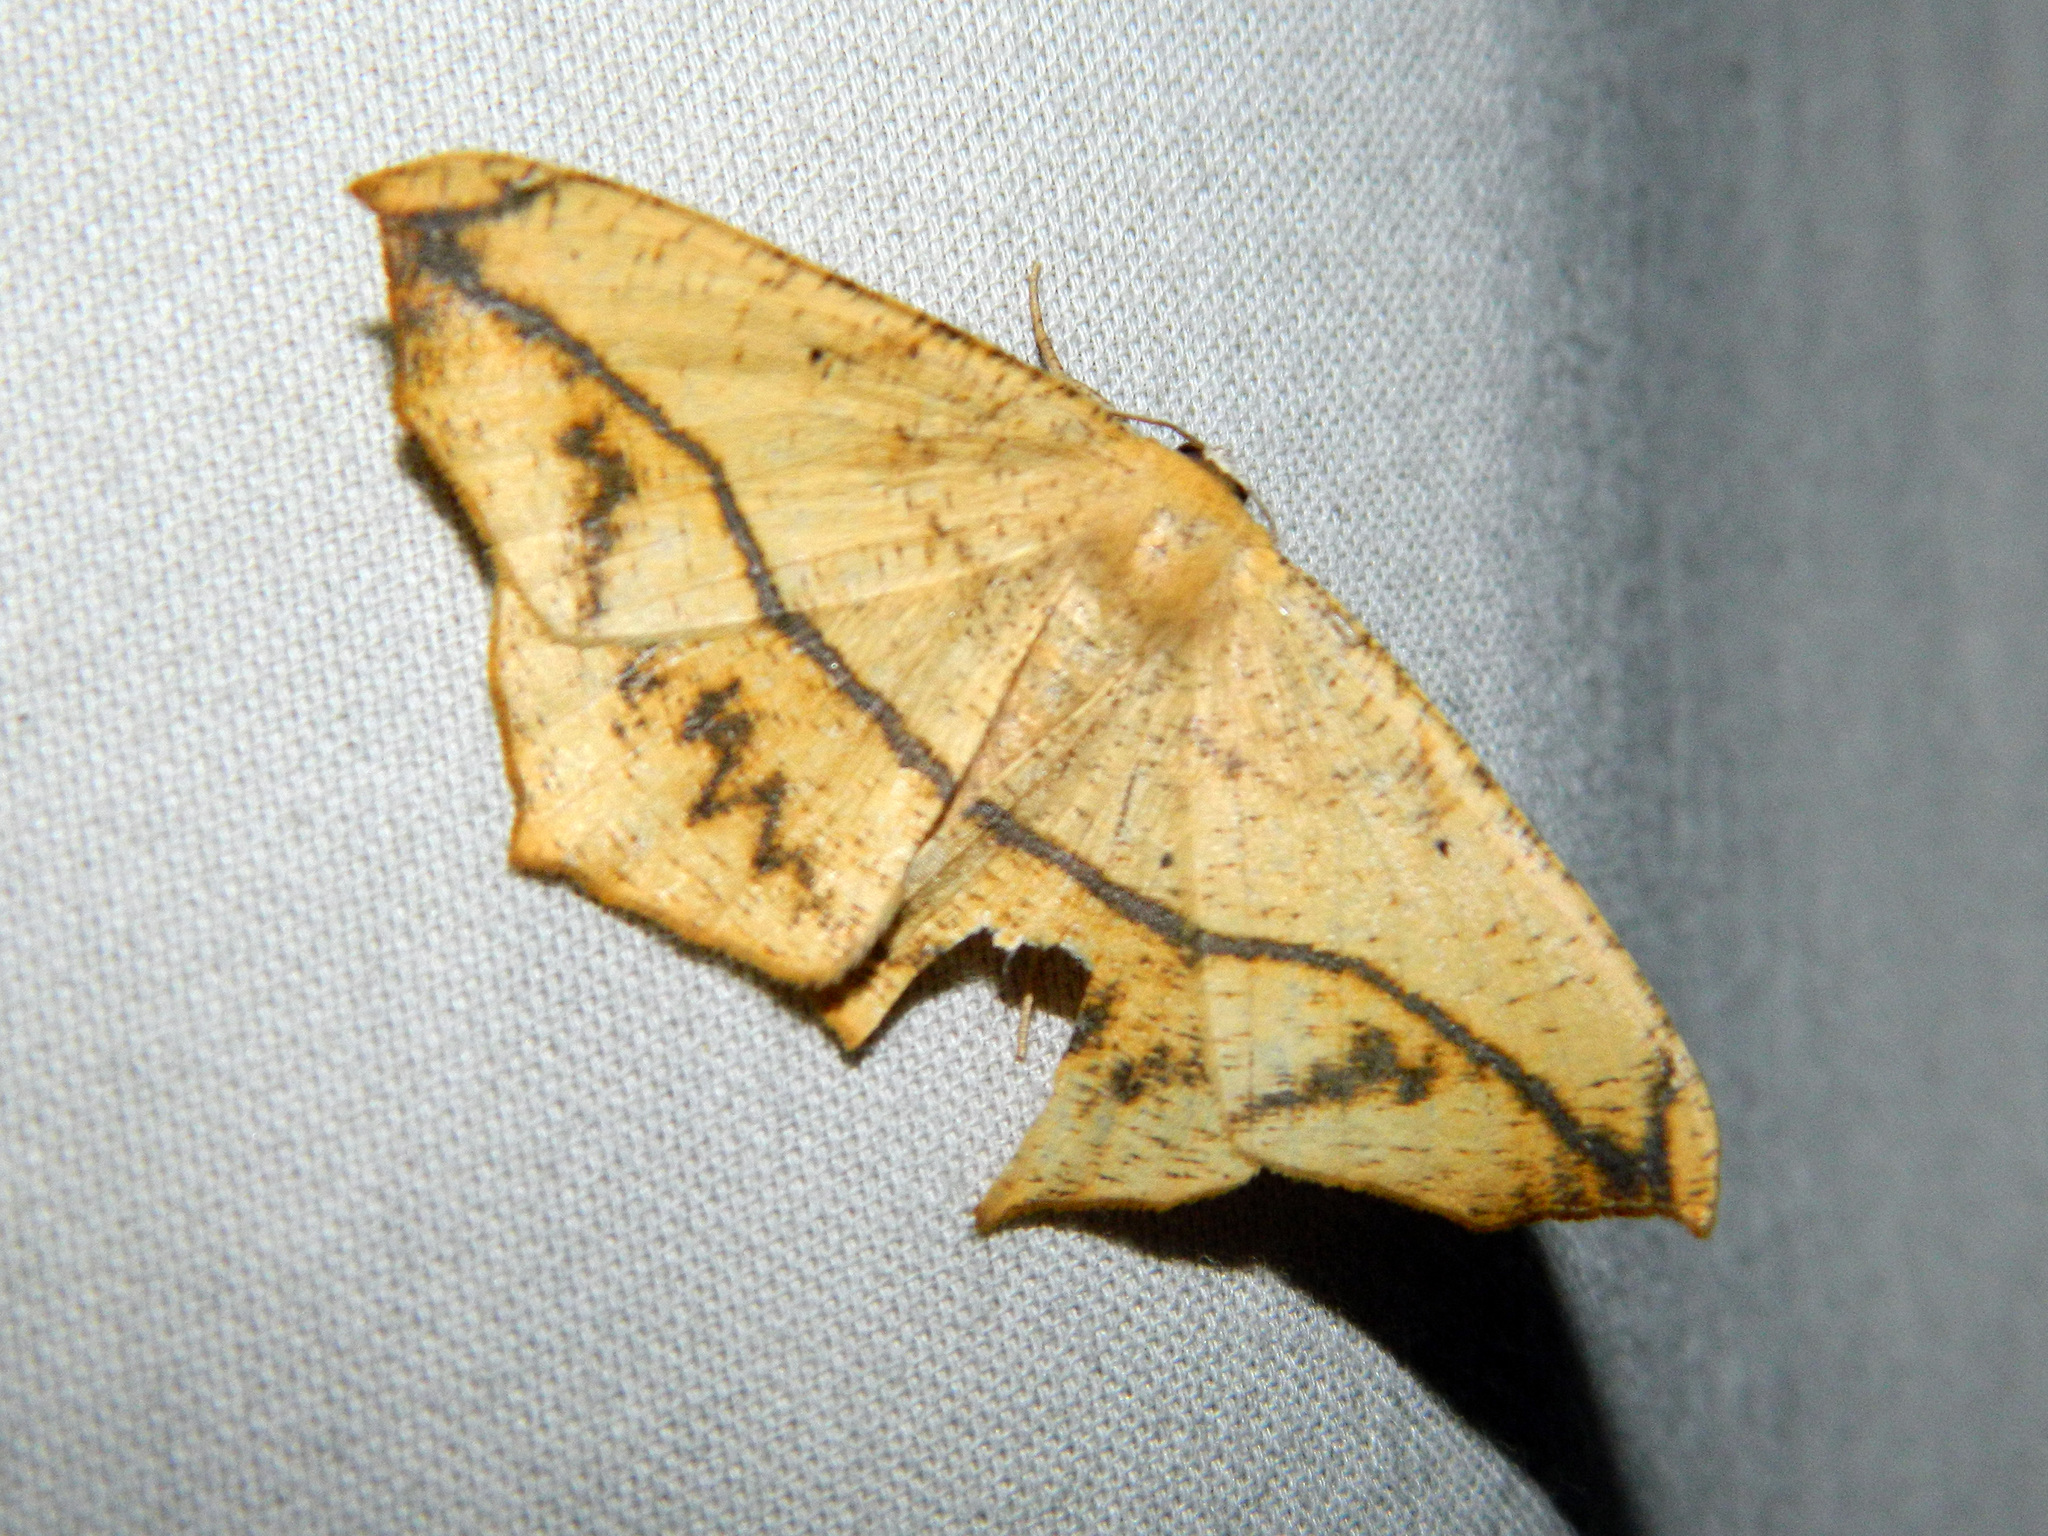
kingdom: Animalia
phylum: Arthropoda
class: Insecta
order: Lepidoptera
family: Geometridae
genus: Prochoerodes
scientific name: Prochoerodes lineola
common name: Large maple spanworm
